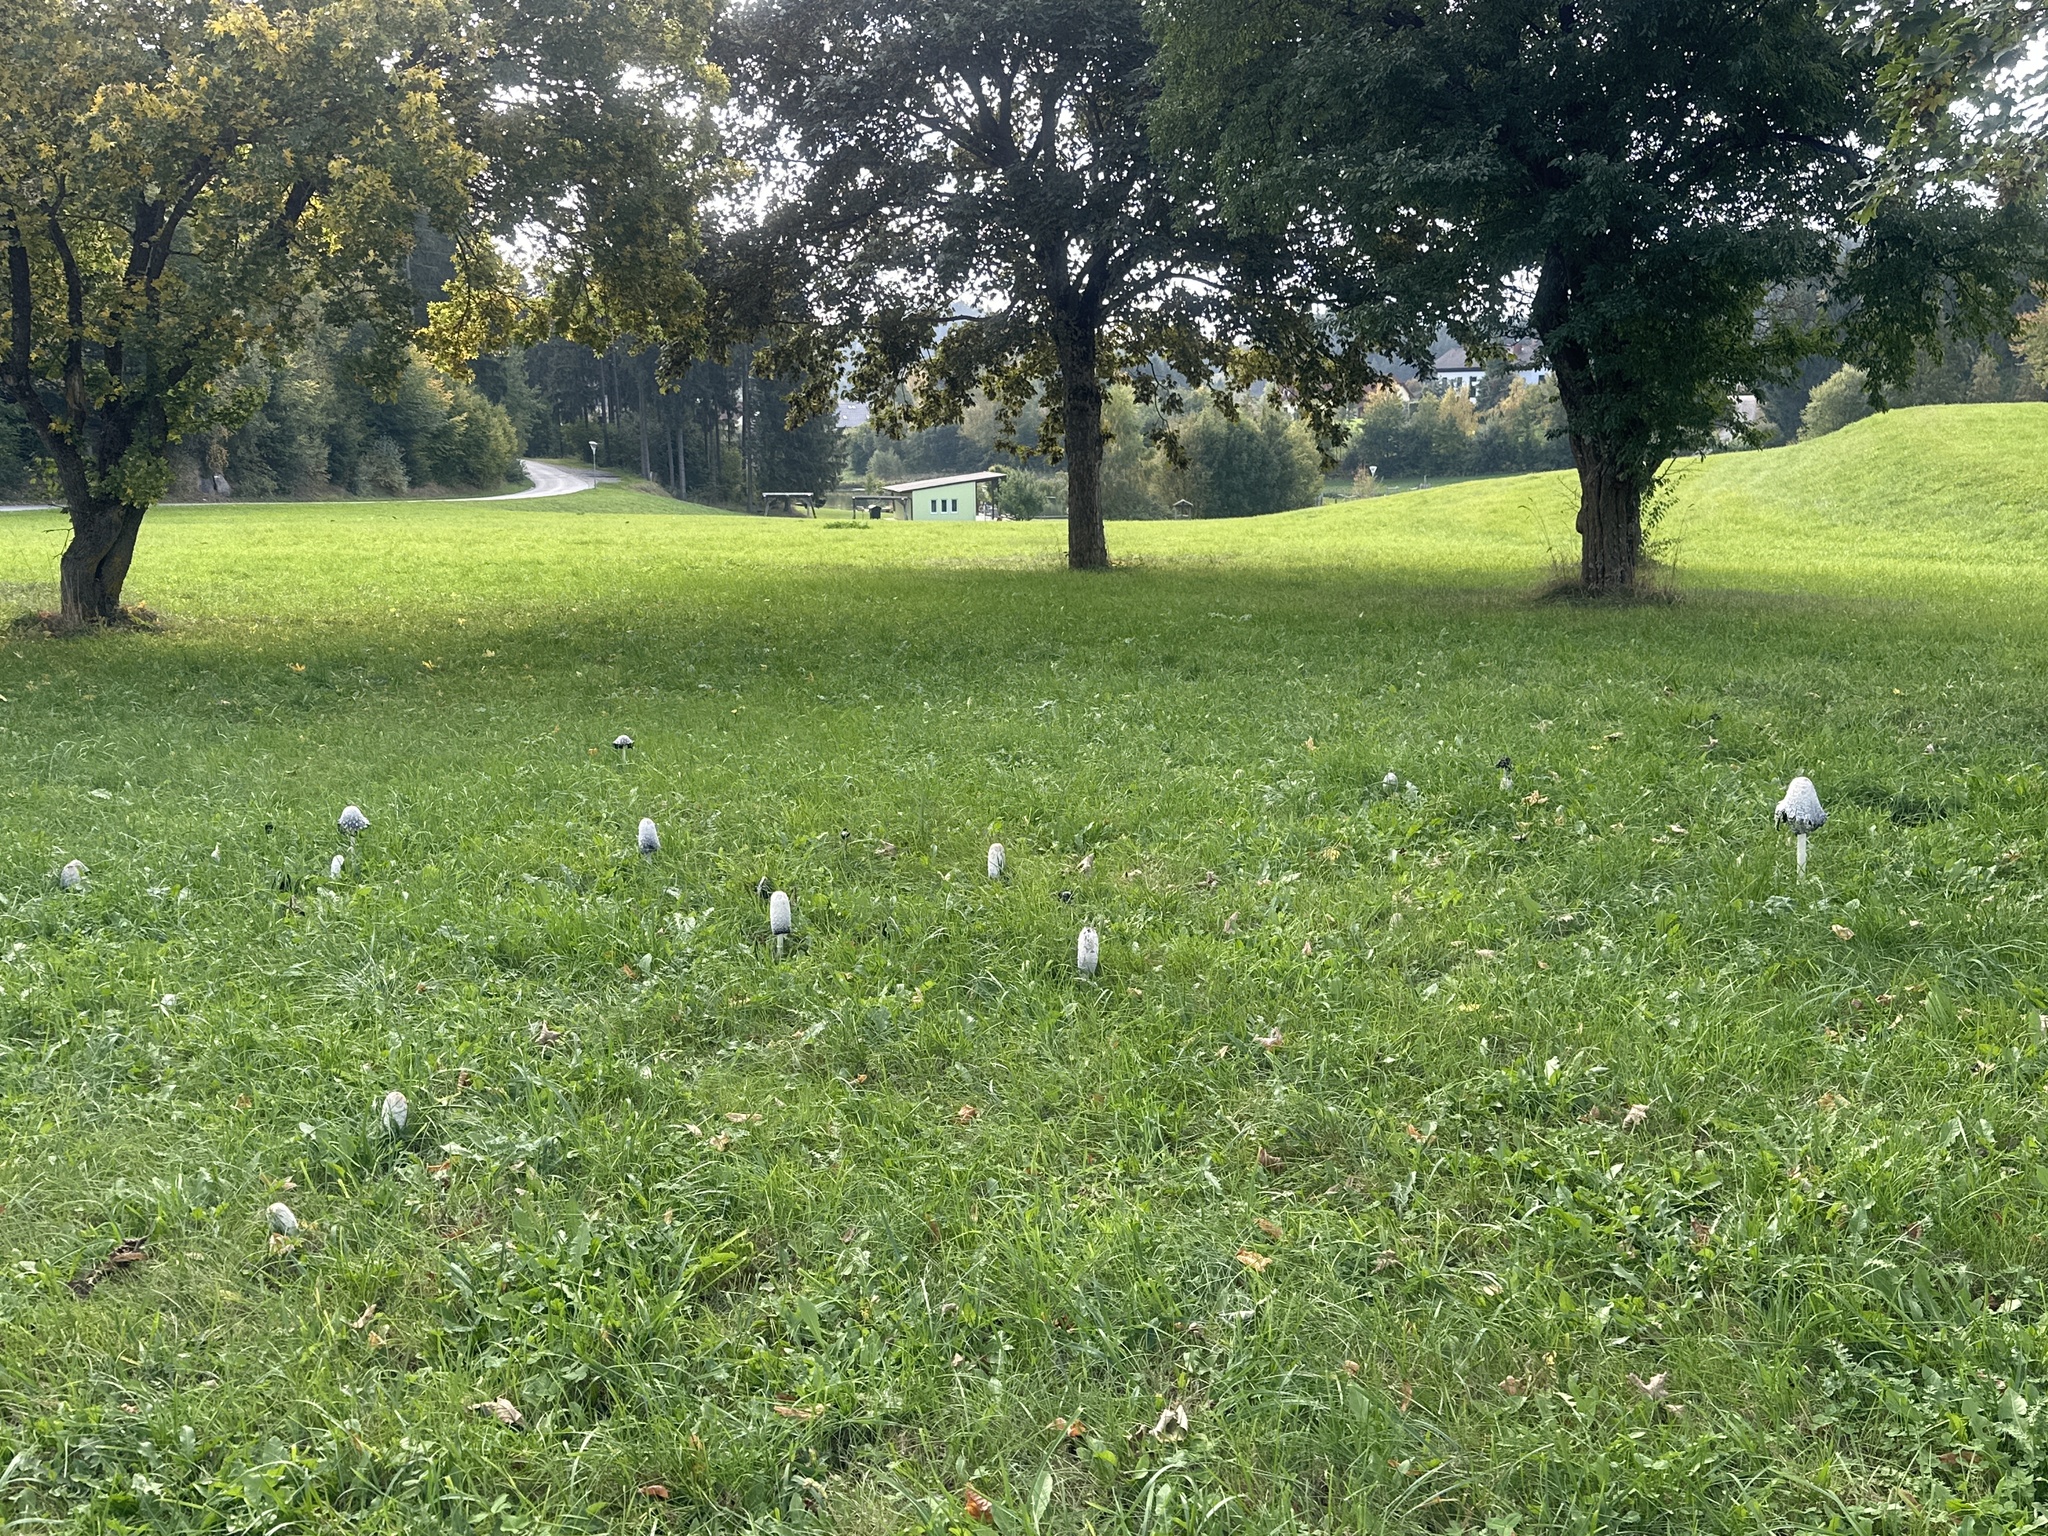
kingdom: Fungi
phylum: Basidiomycota
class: Agaricomycetes
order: Agaricales
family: Agaricaceae
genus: Coprinus
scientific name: Coprinus comatus
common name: Lawyer's wig
